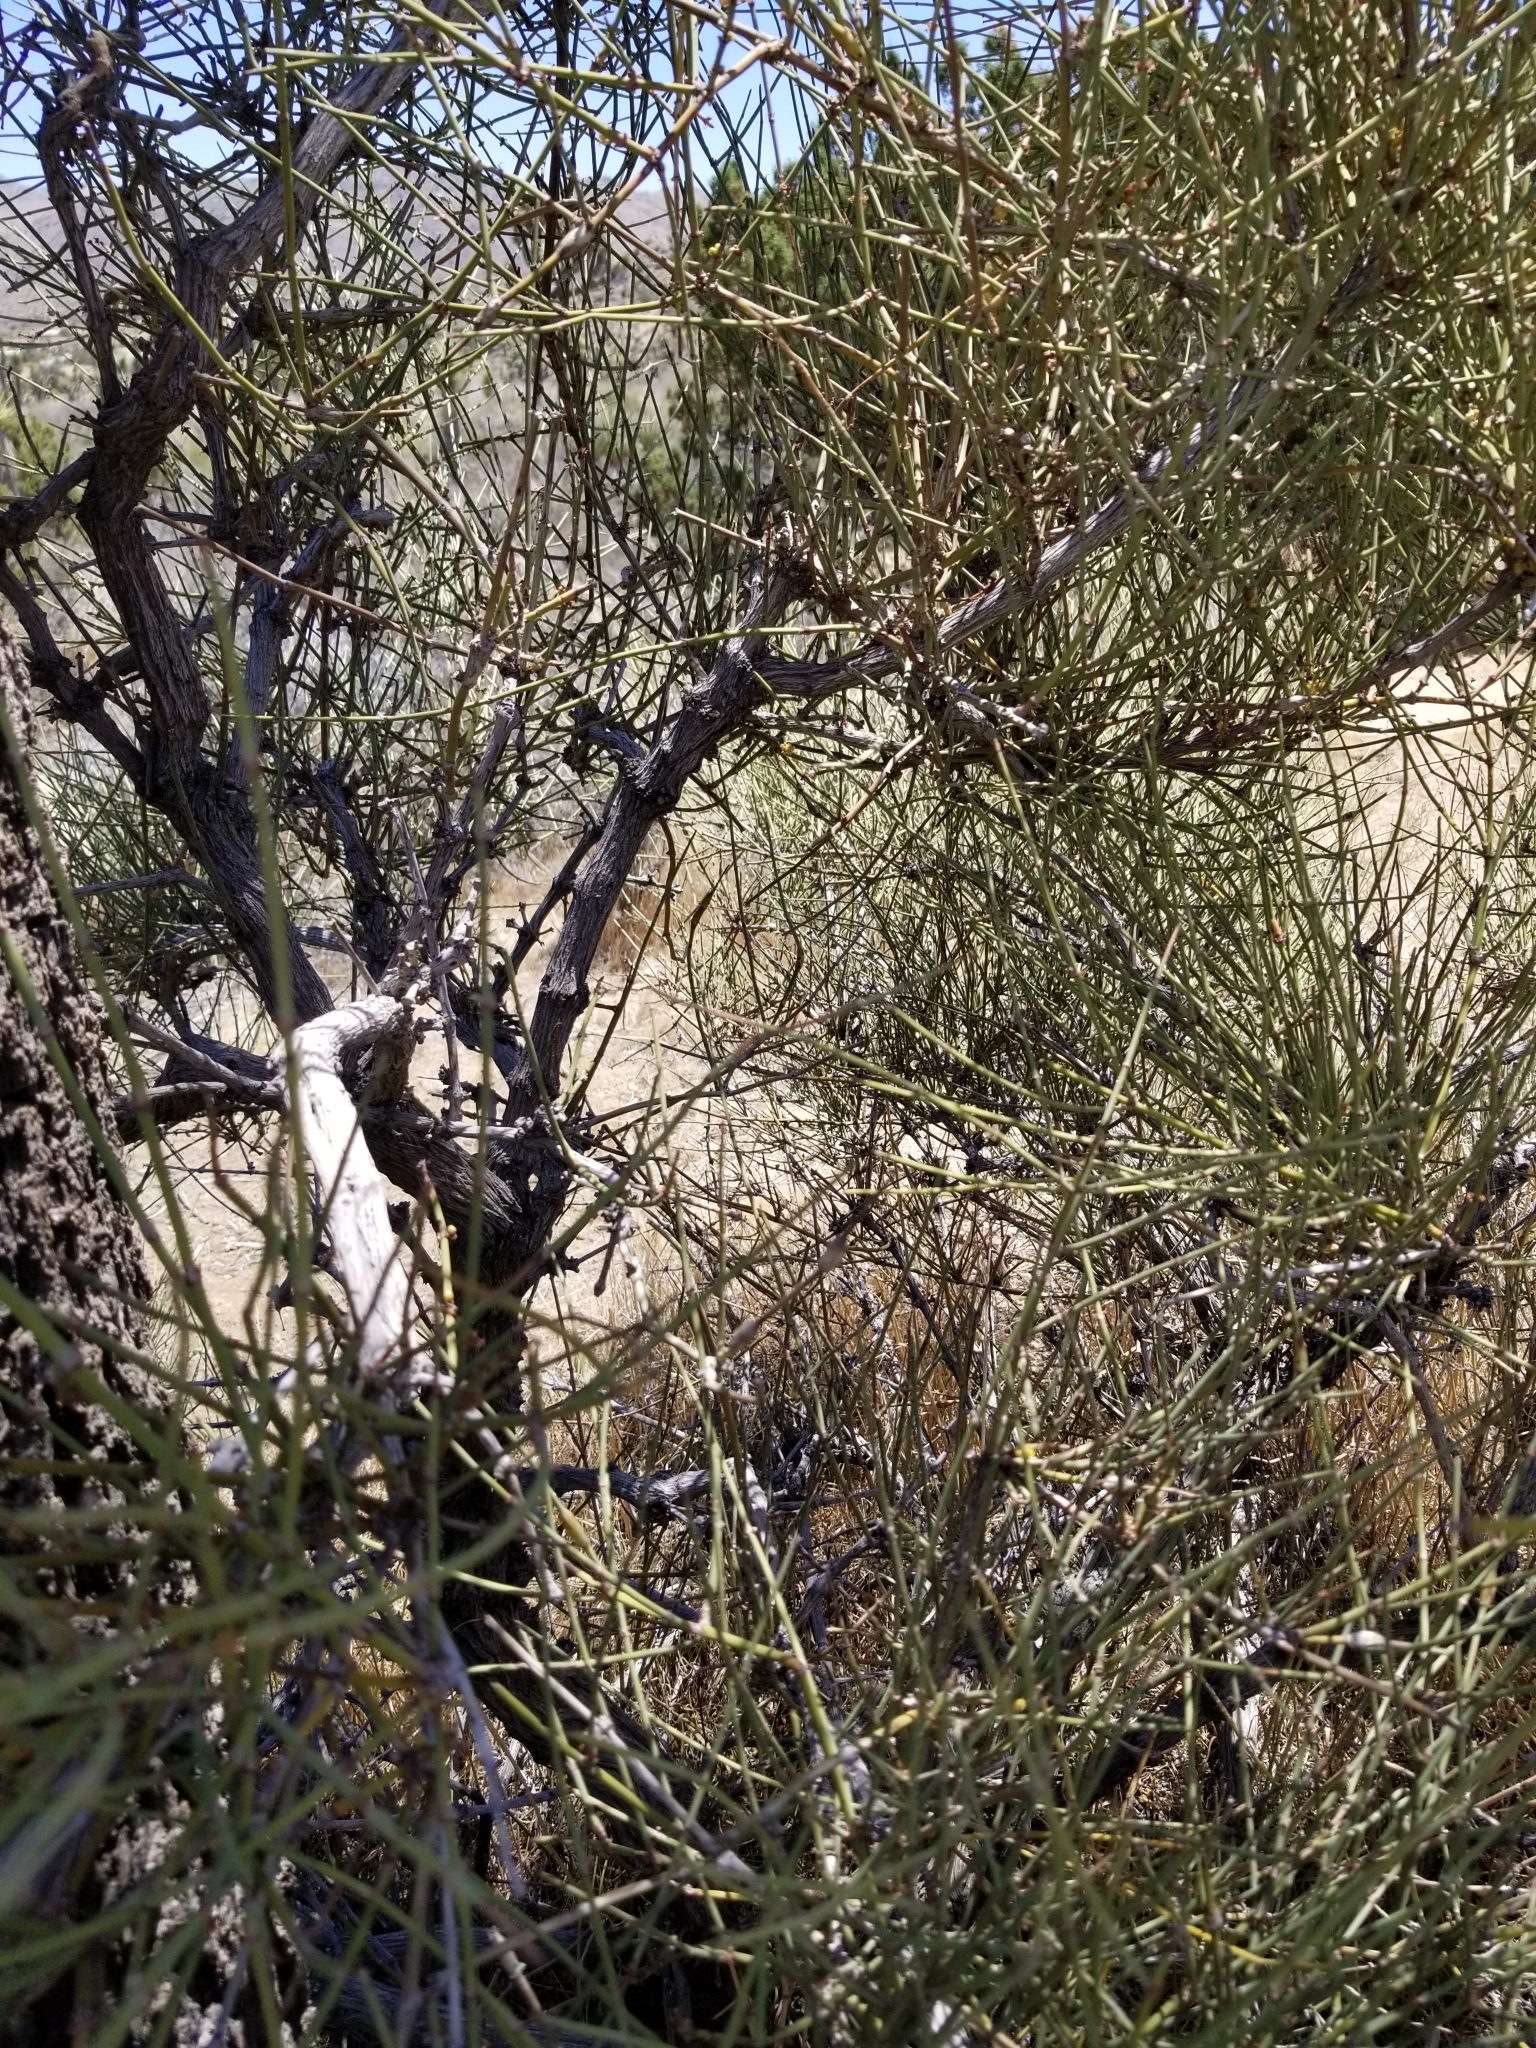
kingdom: Plantae
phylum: Tracheophyta
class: Gnetopsida
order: Ephedrales
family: Ephedraceae
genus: Ephedra
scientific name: Ephedra californica
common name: California ephedra
